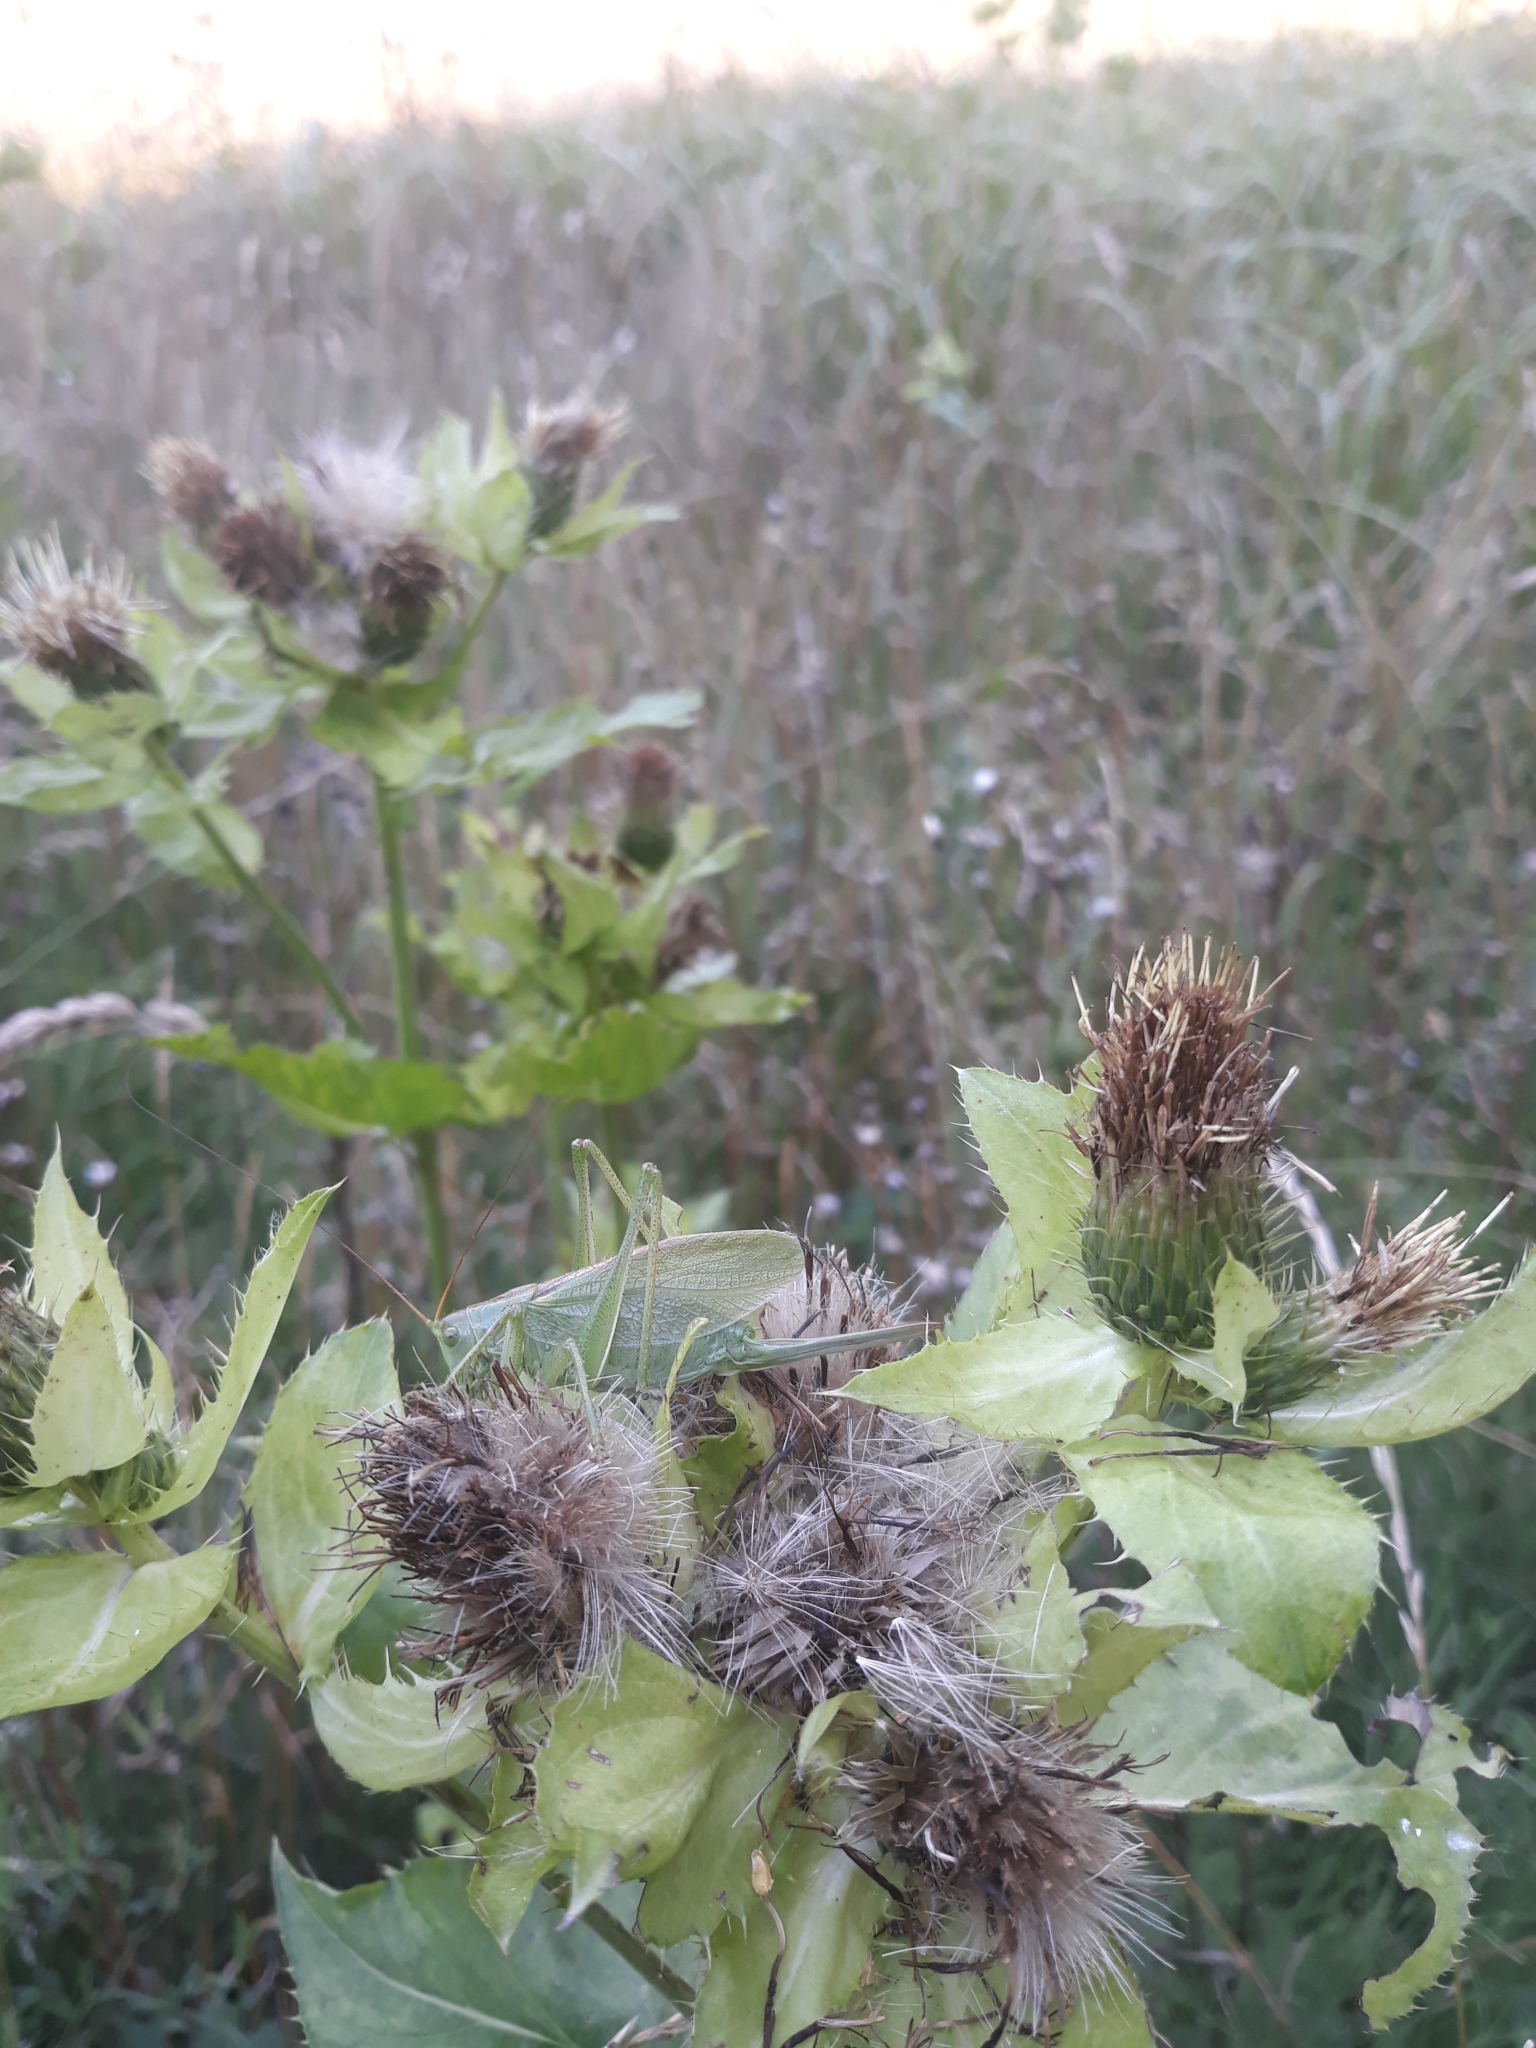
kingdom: Animalia
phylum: Arthropoda
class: Insecta
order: Orthoptera
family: Tettigoniidae
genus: Tettigonia
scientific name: Tettigonia cantans
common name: Upland green bush-cricket
